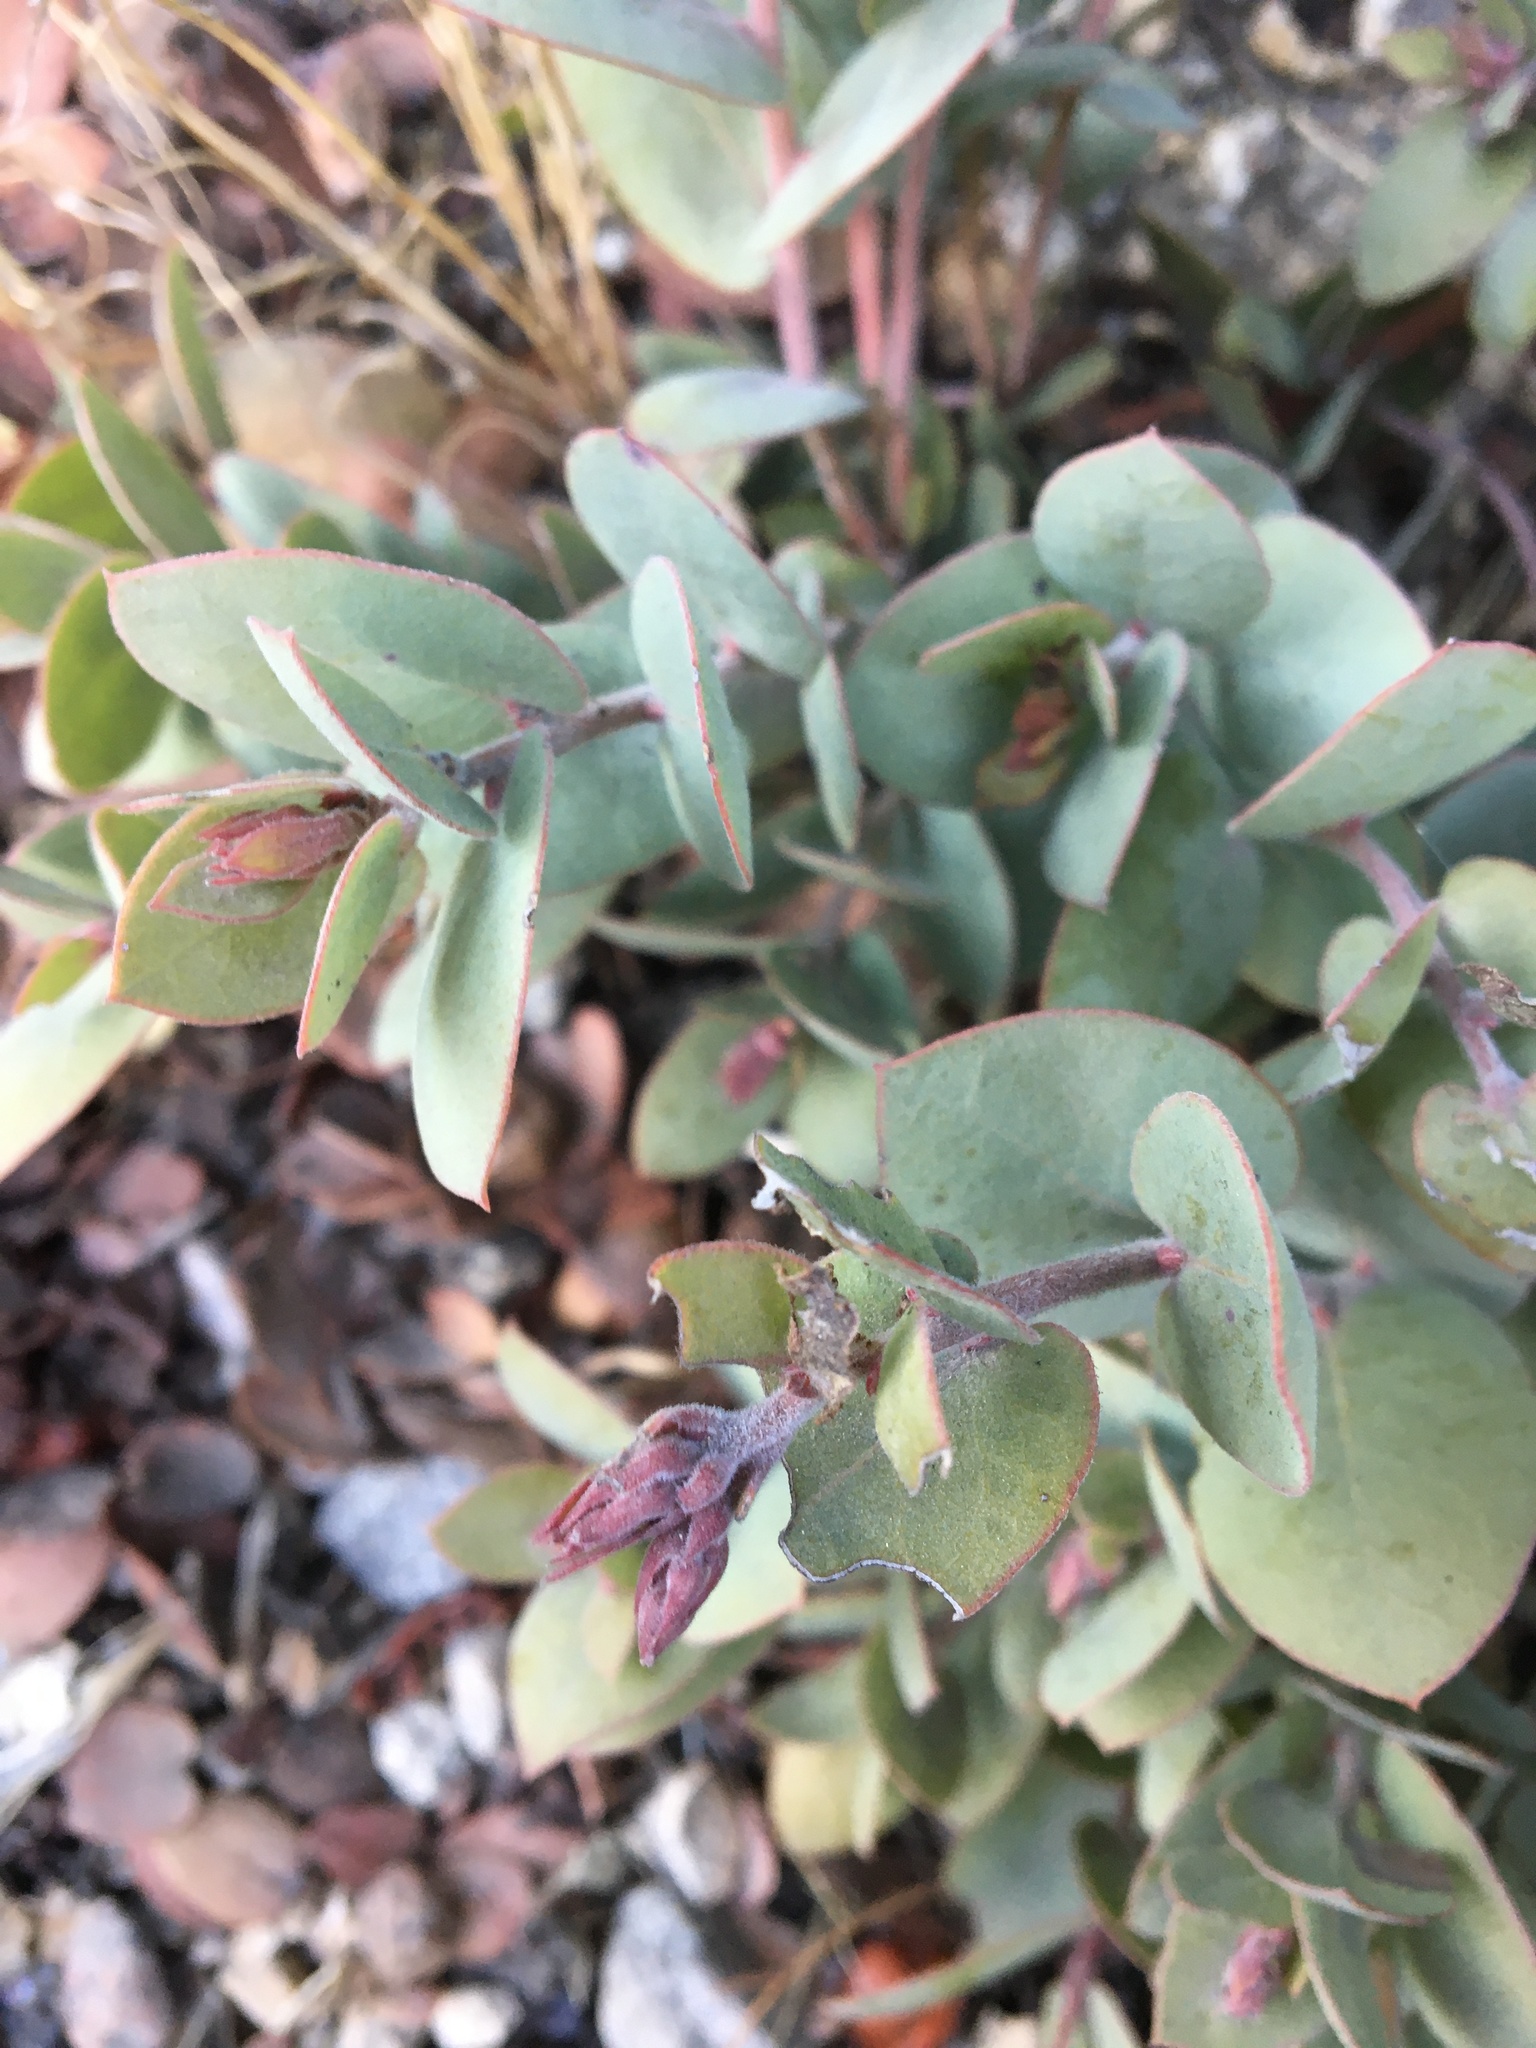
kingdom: Plantae
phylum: Tracheophyta
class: Magnoliopsida
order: Ericales
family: Ericaceae
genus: Arctostaphylos
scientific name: Arctostaphylos luciana
